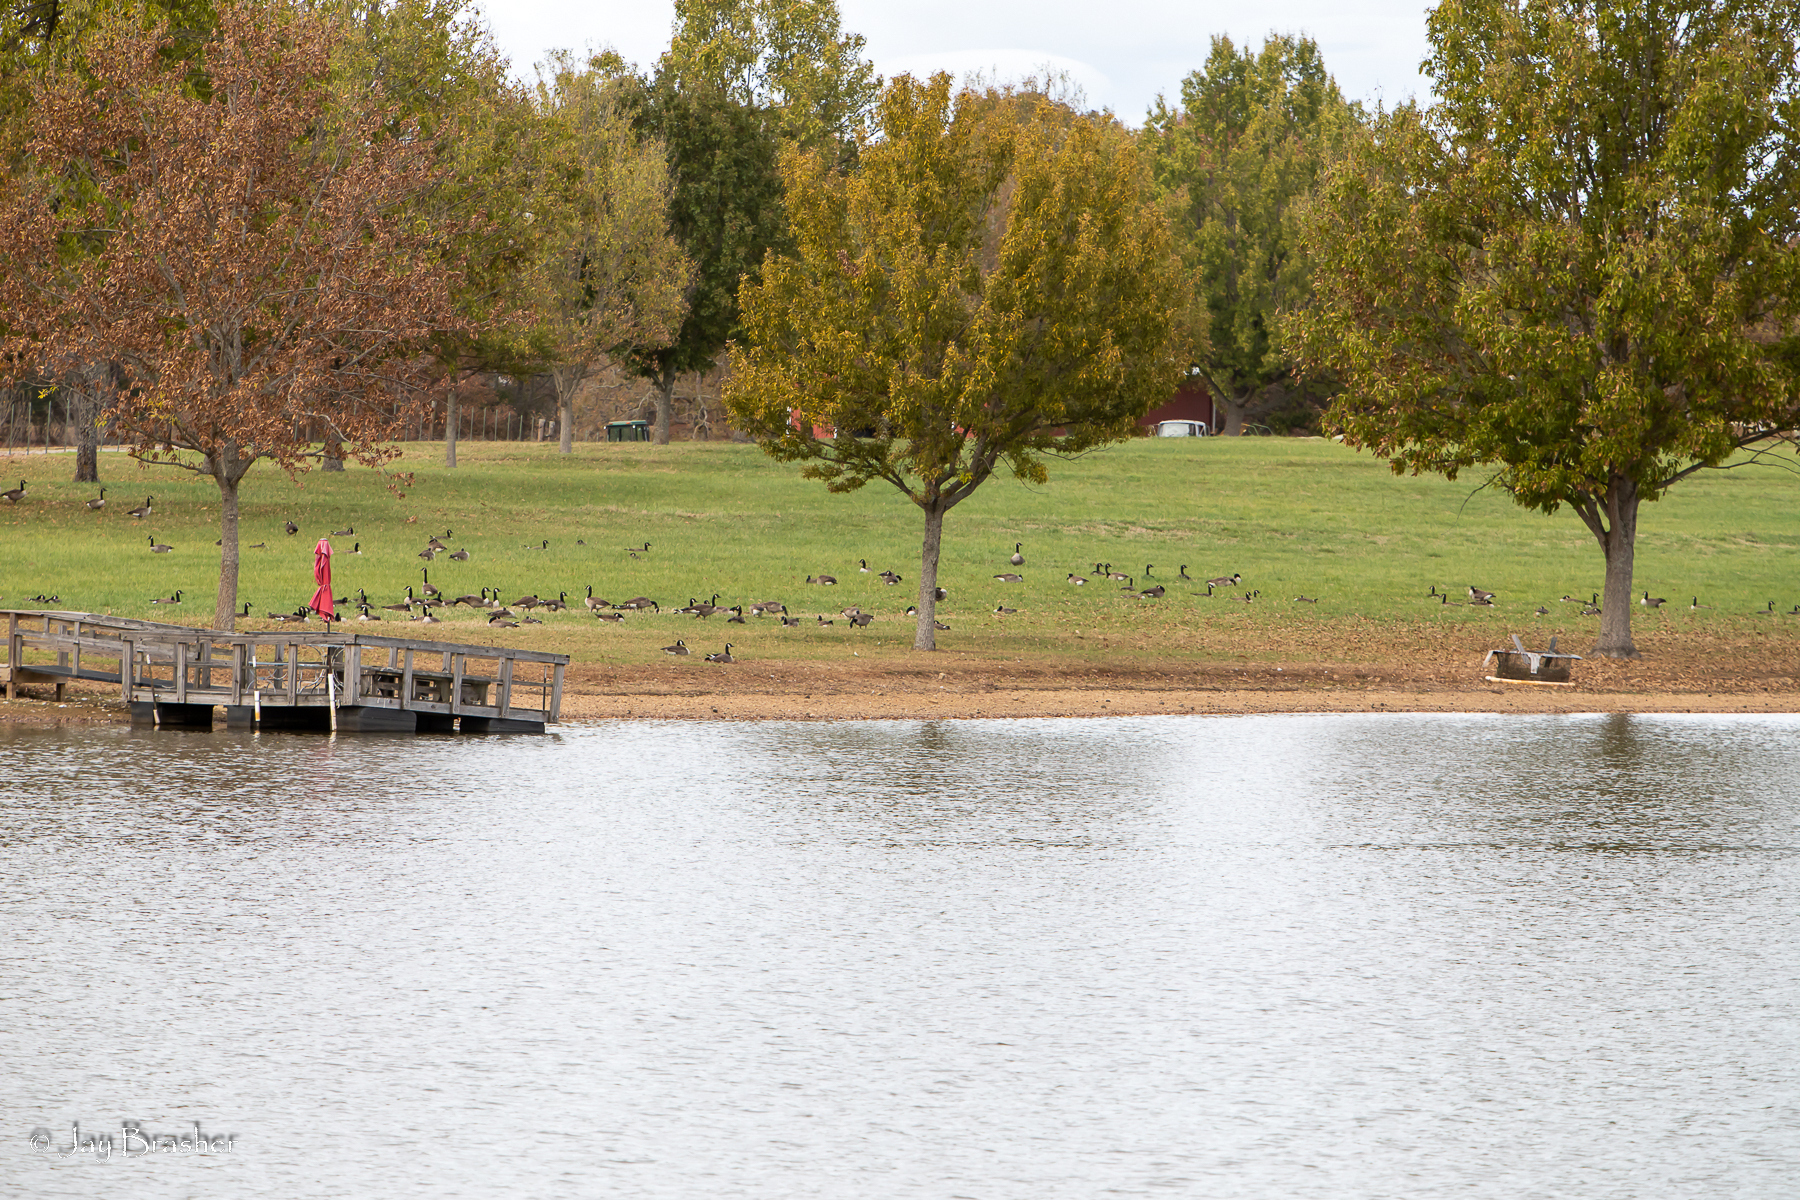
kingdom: Animalia
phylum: Chordata
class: Aves
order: Anseriformes
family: Anatidae
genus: Branta
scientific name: Branta canadensis
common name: Canada goose
